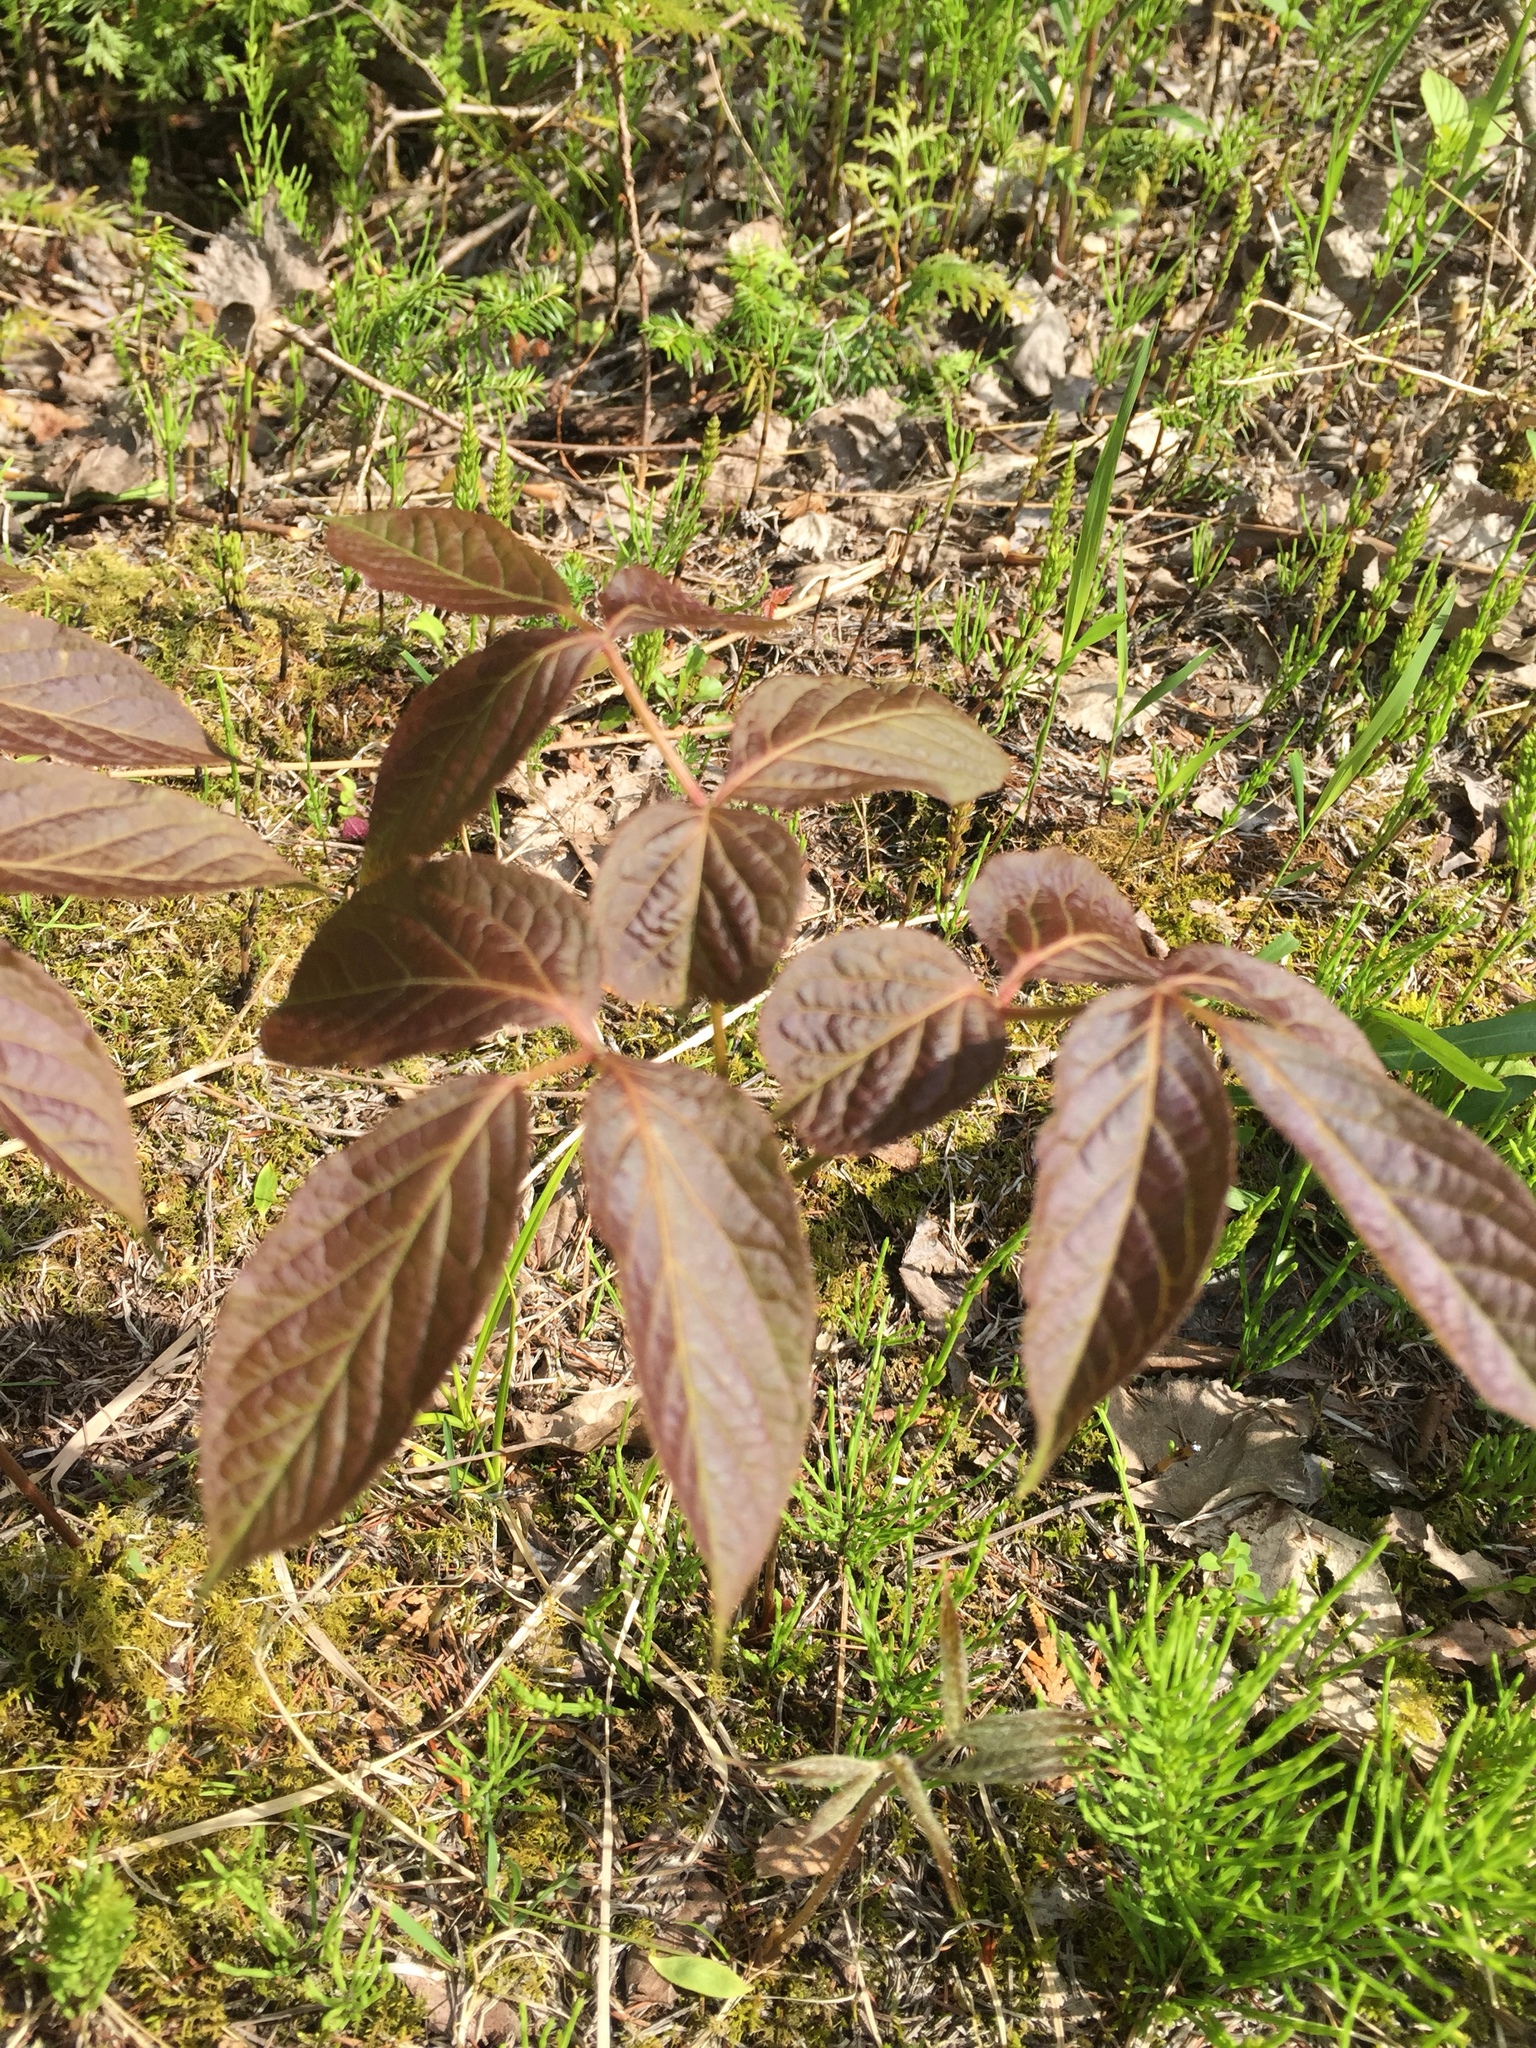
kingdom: Plantae
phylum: Tracheophyta
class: Magnoliopsida
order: Apiales
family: Araliaceae
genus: Aralia
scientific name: Aralia nudicaulis
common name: Wild sarsaparilla
